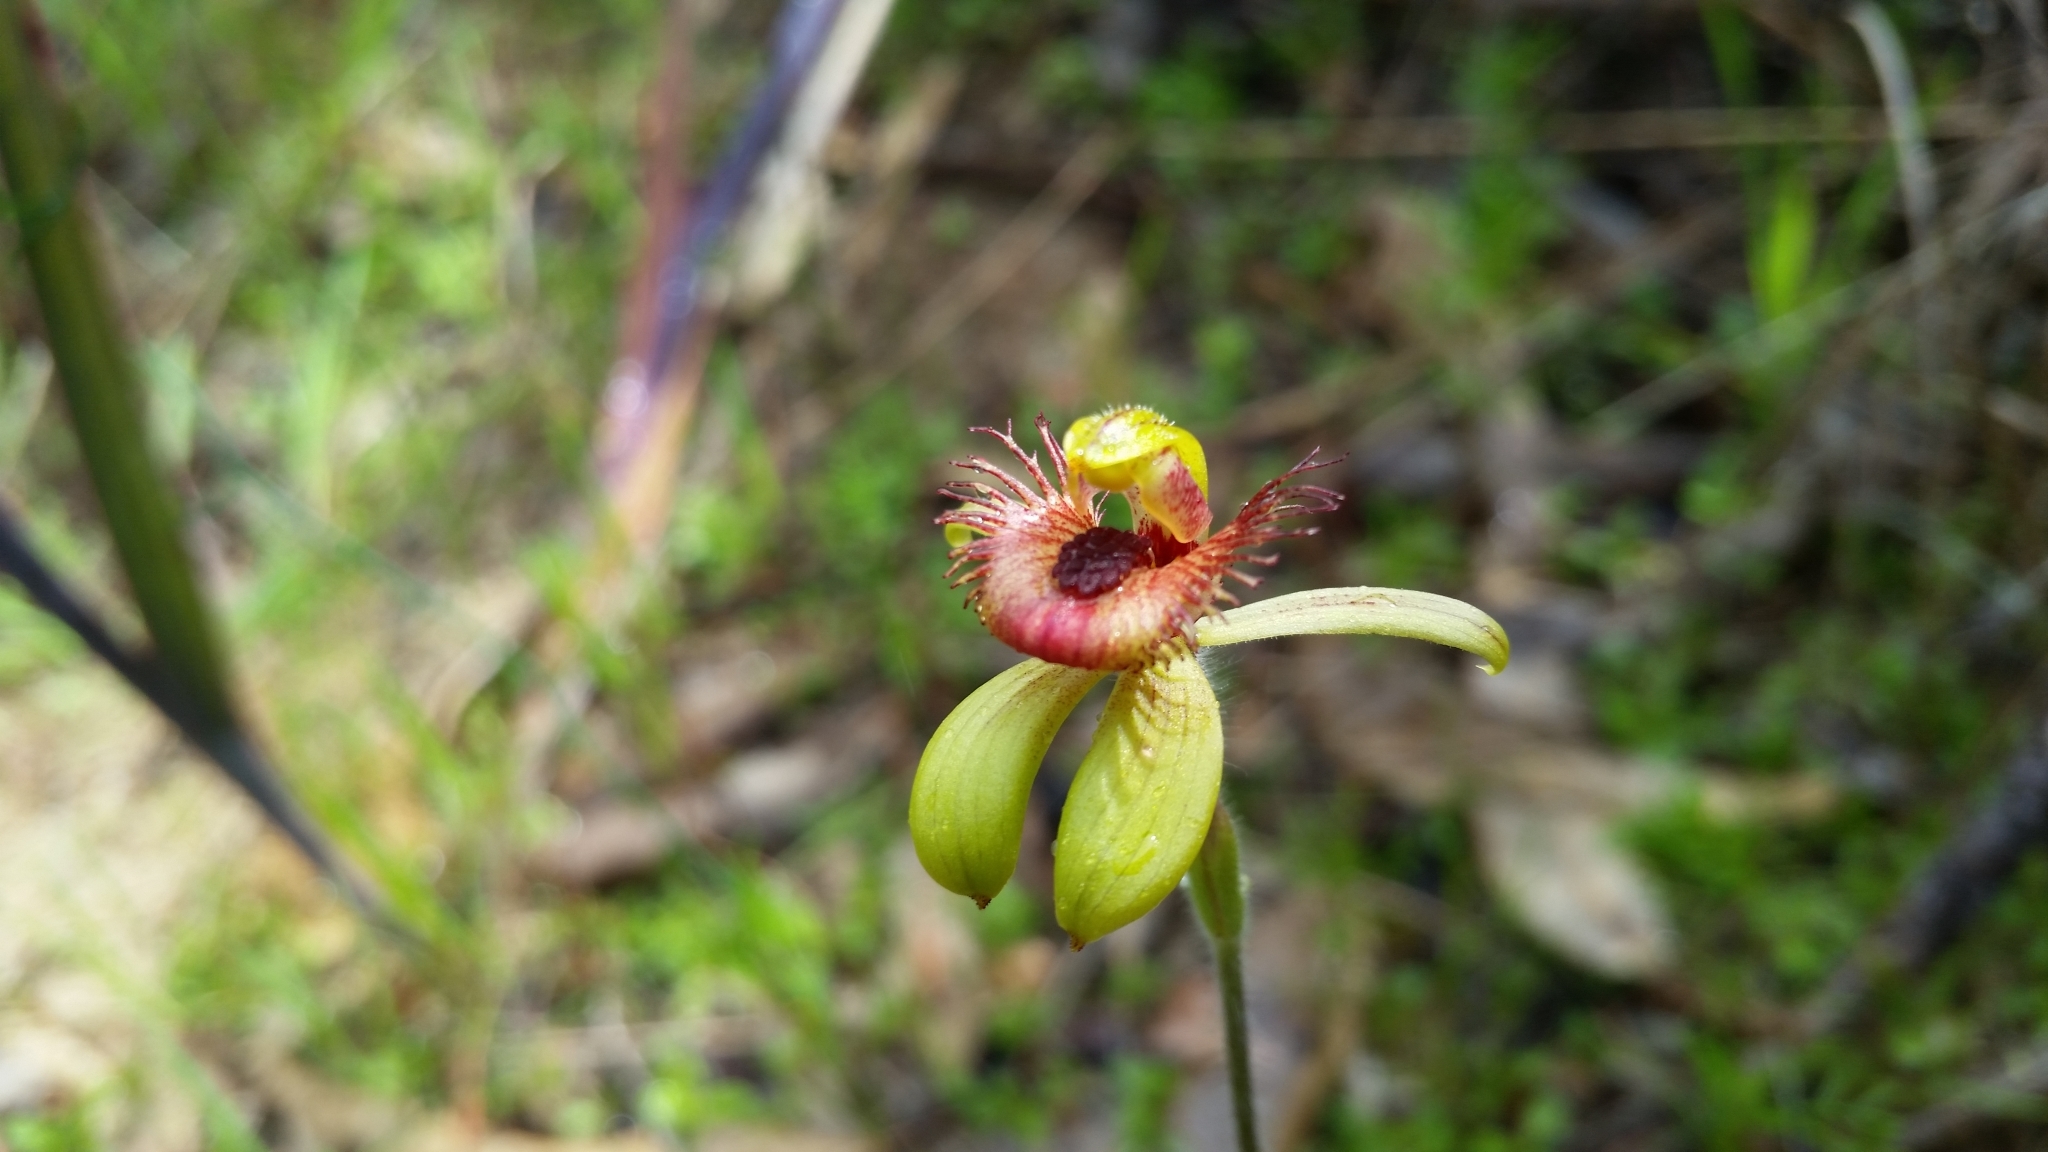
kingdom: Plantae
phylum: Tracheophyta
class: Liliopsida
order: Asparagales
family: Orchidaceae
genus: Caladenia
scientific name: Caladenia discoidea
